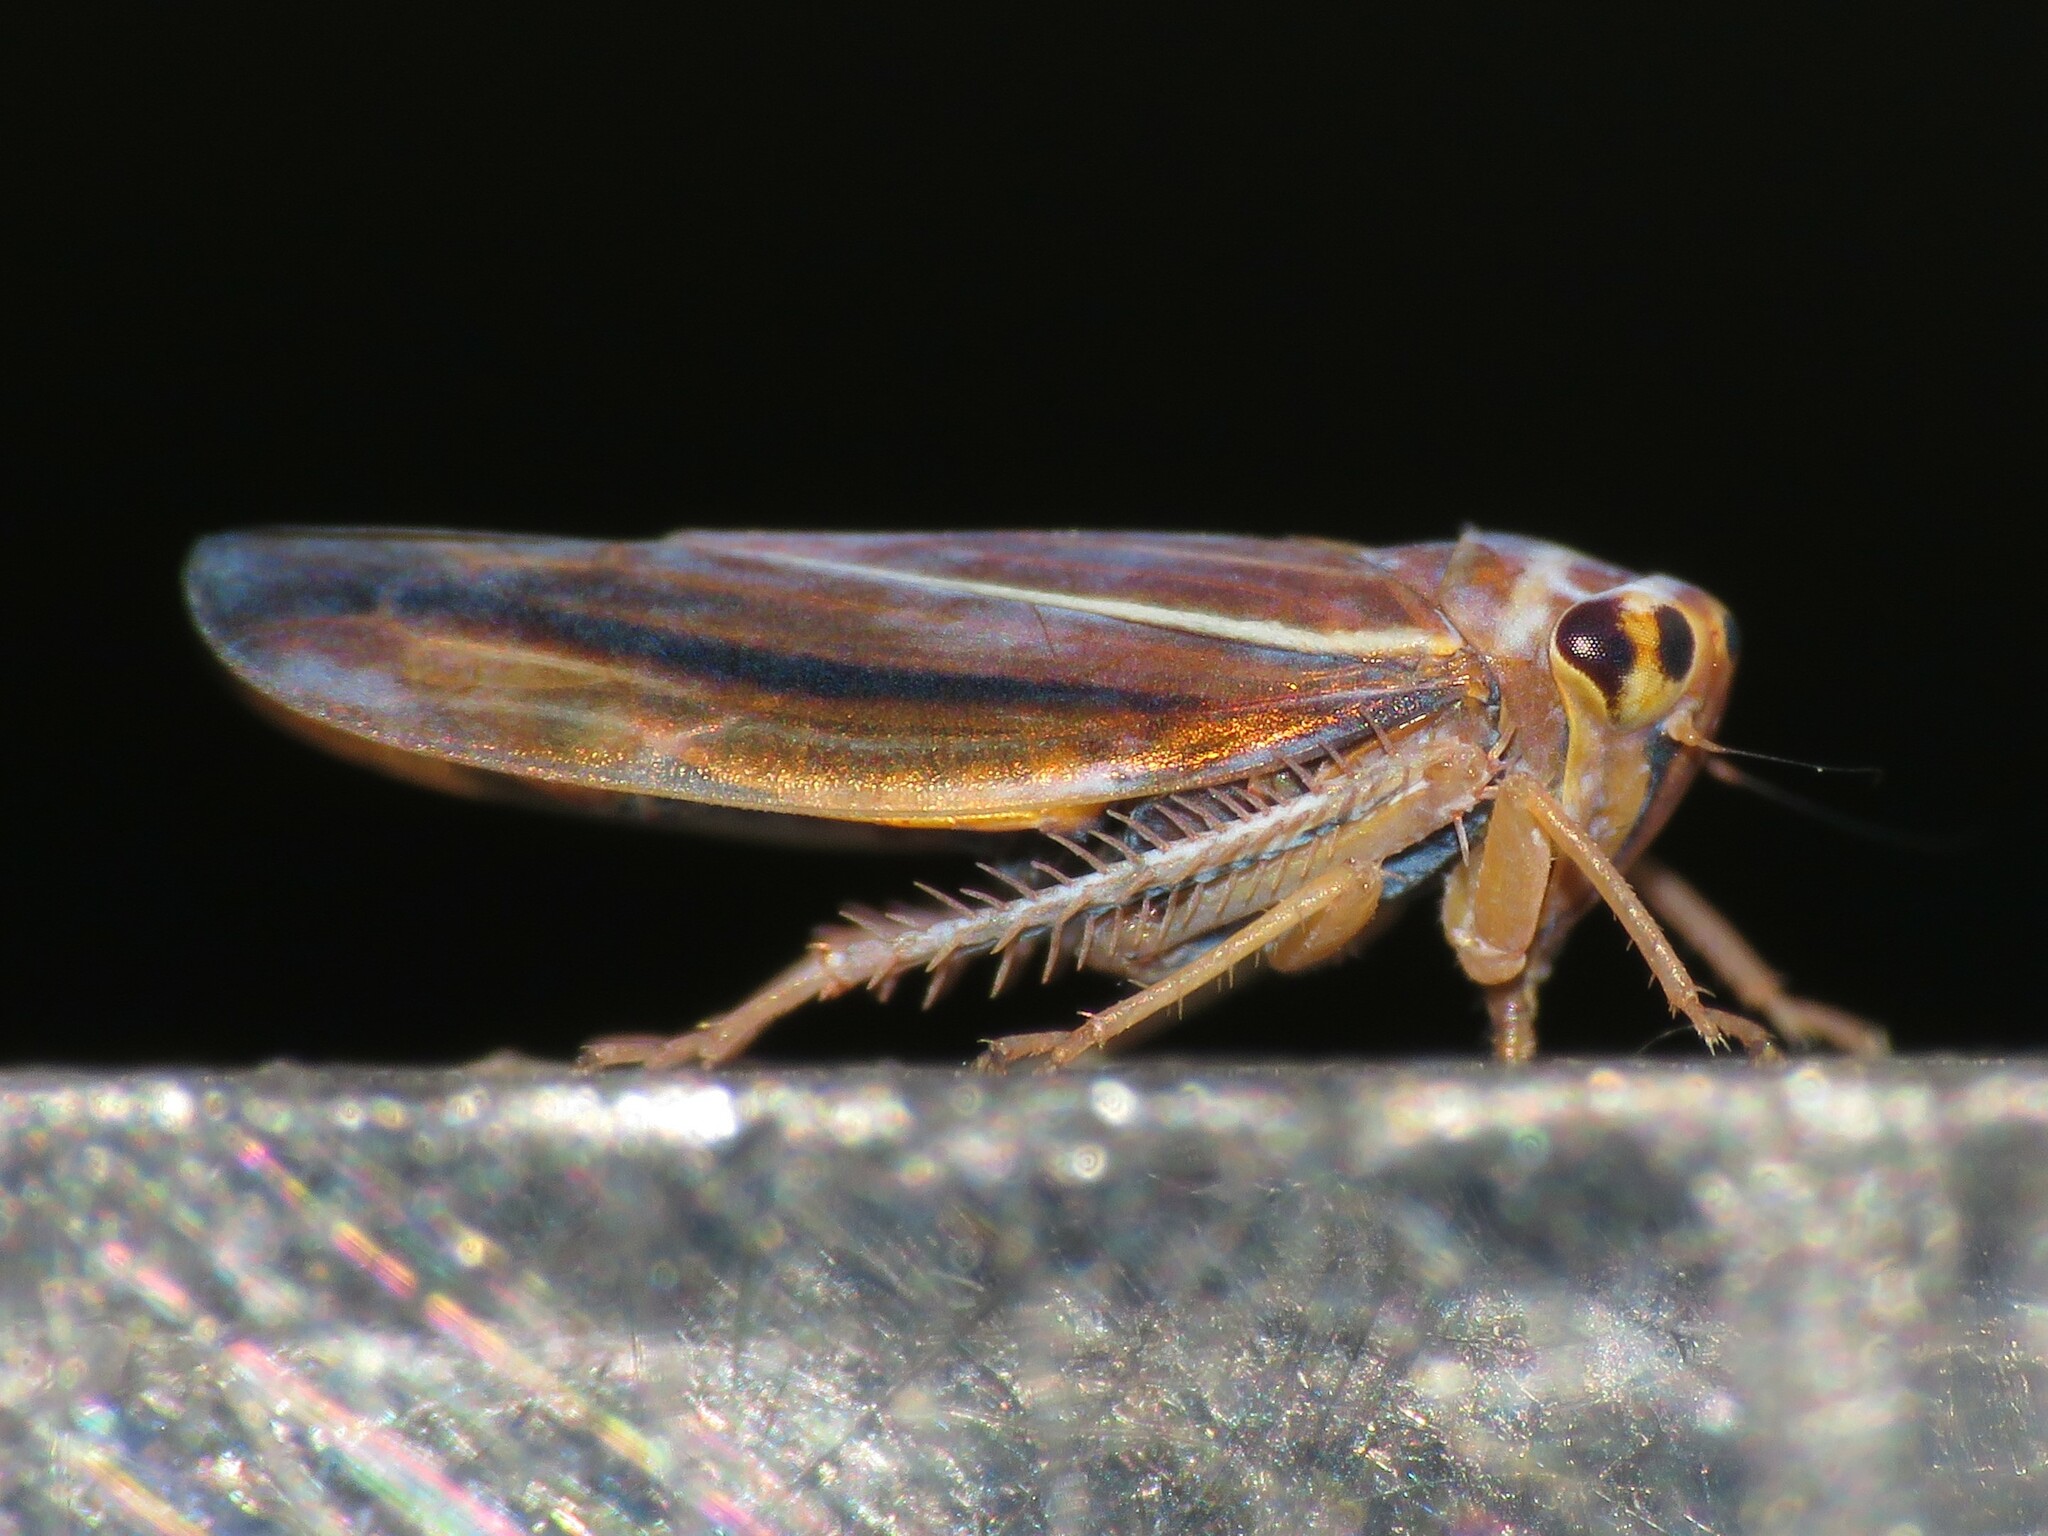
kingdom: Animalia
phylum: Arthropoda
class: Insecta
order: Hemiptera
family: Cicadellidae
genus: Idiodonus
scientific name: Idiodonus kennicotti
